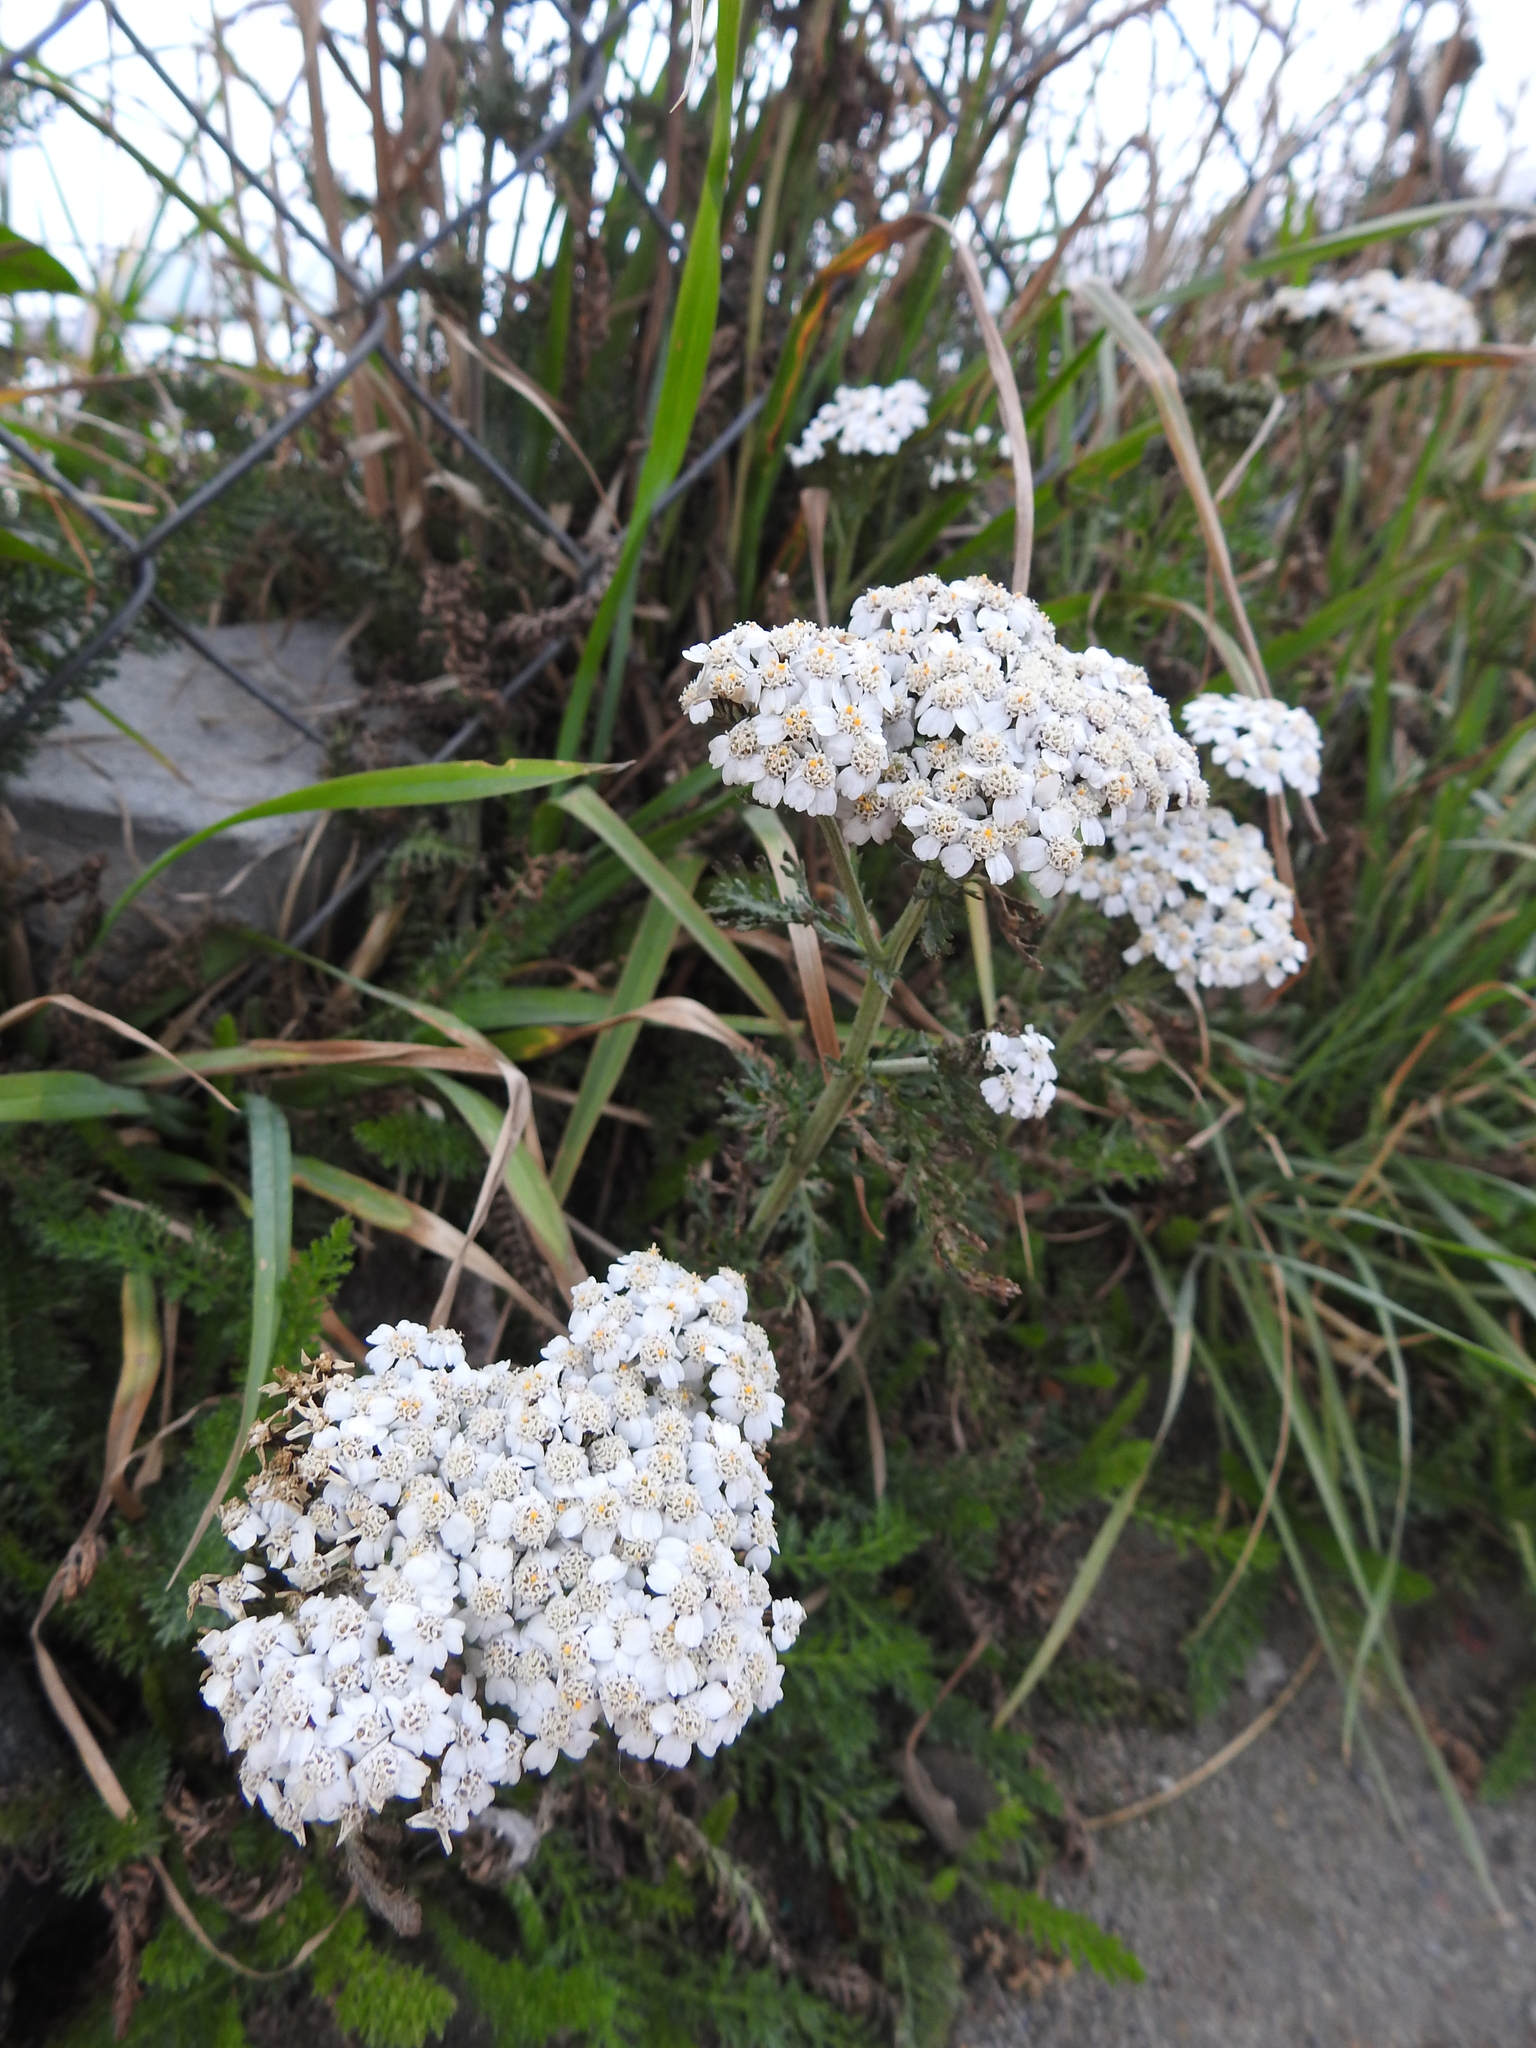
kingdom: Plantae
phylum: Tracheophyta
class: Magnoliopsida
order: Asterales
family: Asteraceae
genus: Achillea
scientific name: Achillea millefolium
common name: Yarrow
